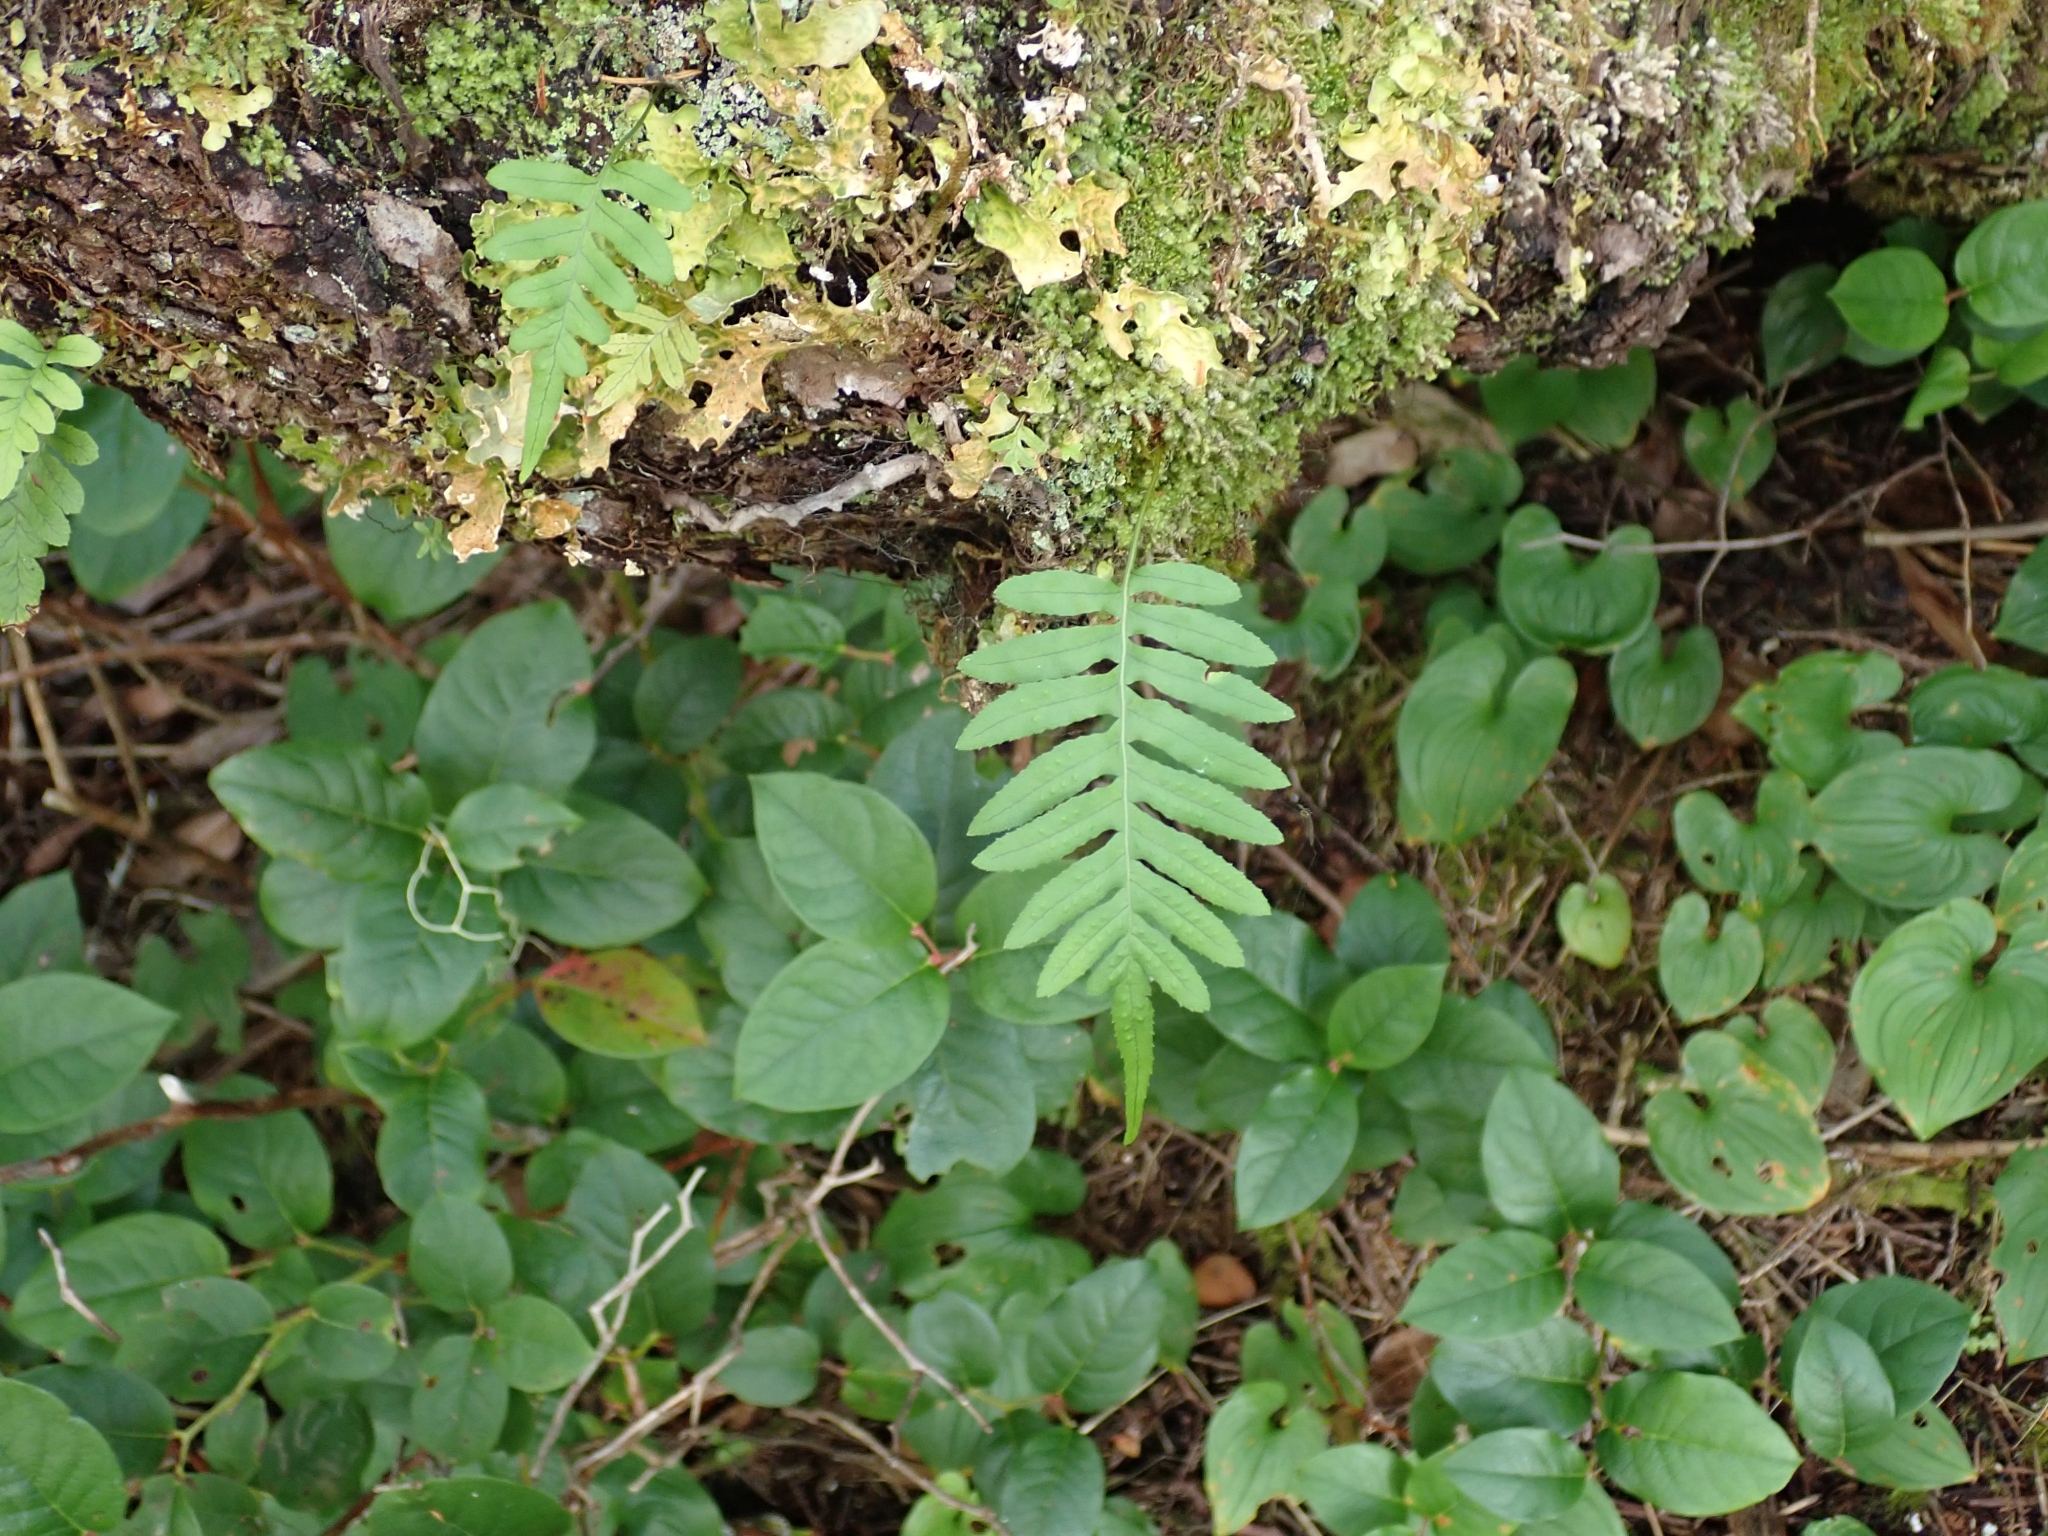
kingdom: Plantae
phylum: Tracheophyta
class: Polypodiopsida
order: Polypodiales
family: Polypodiaceae
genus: Polypodium
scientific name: Polypodium glycyrrhiza
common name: Licorice fern
